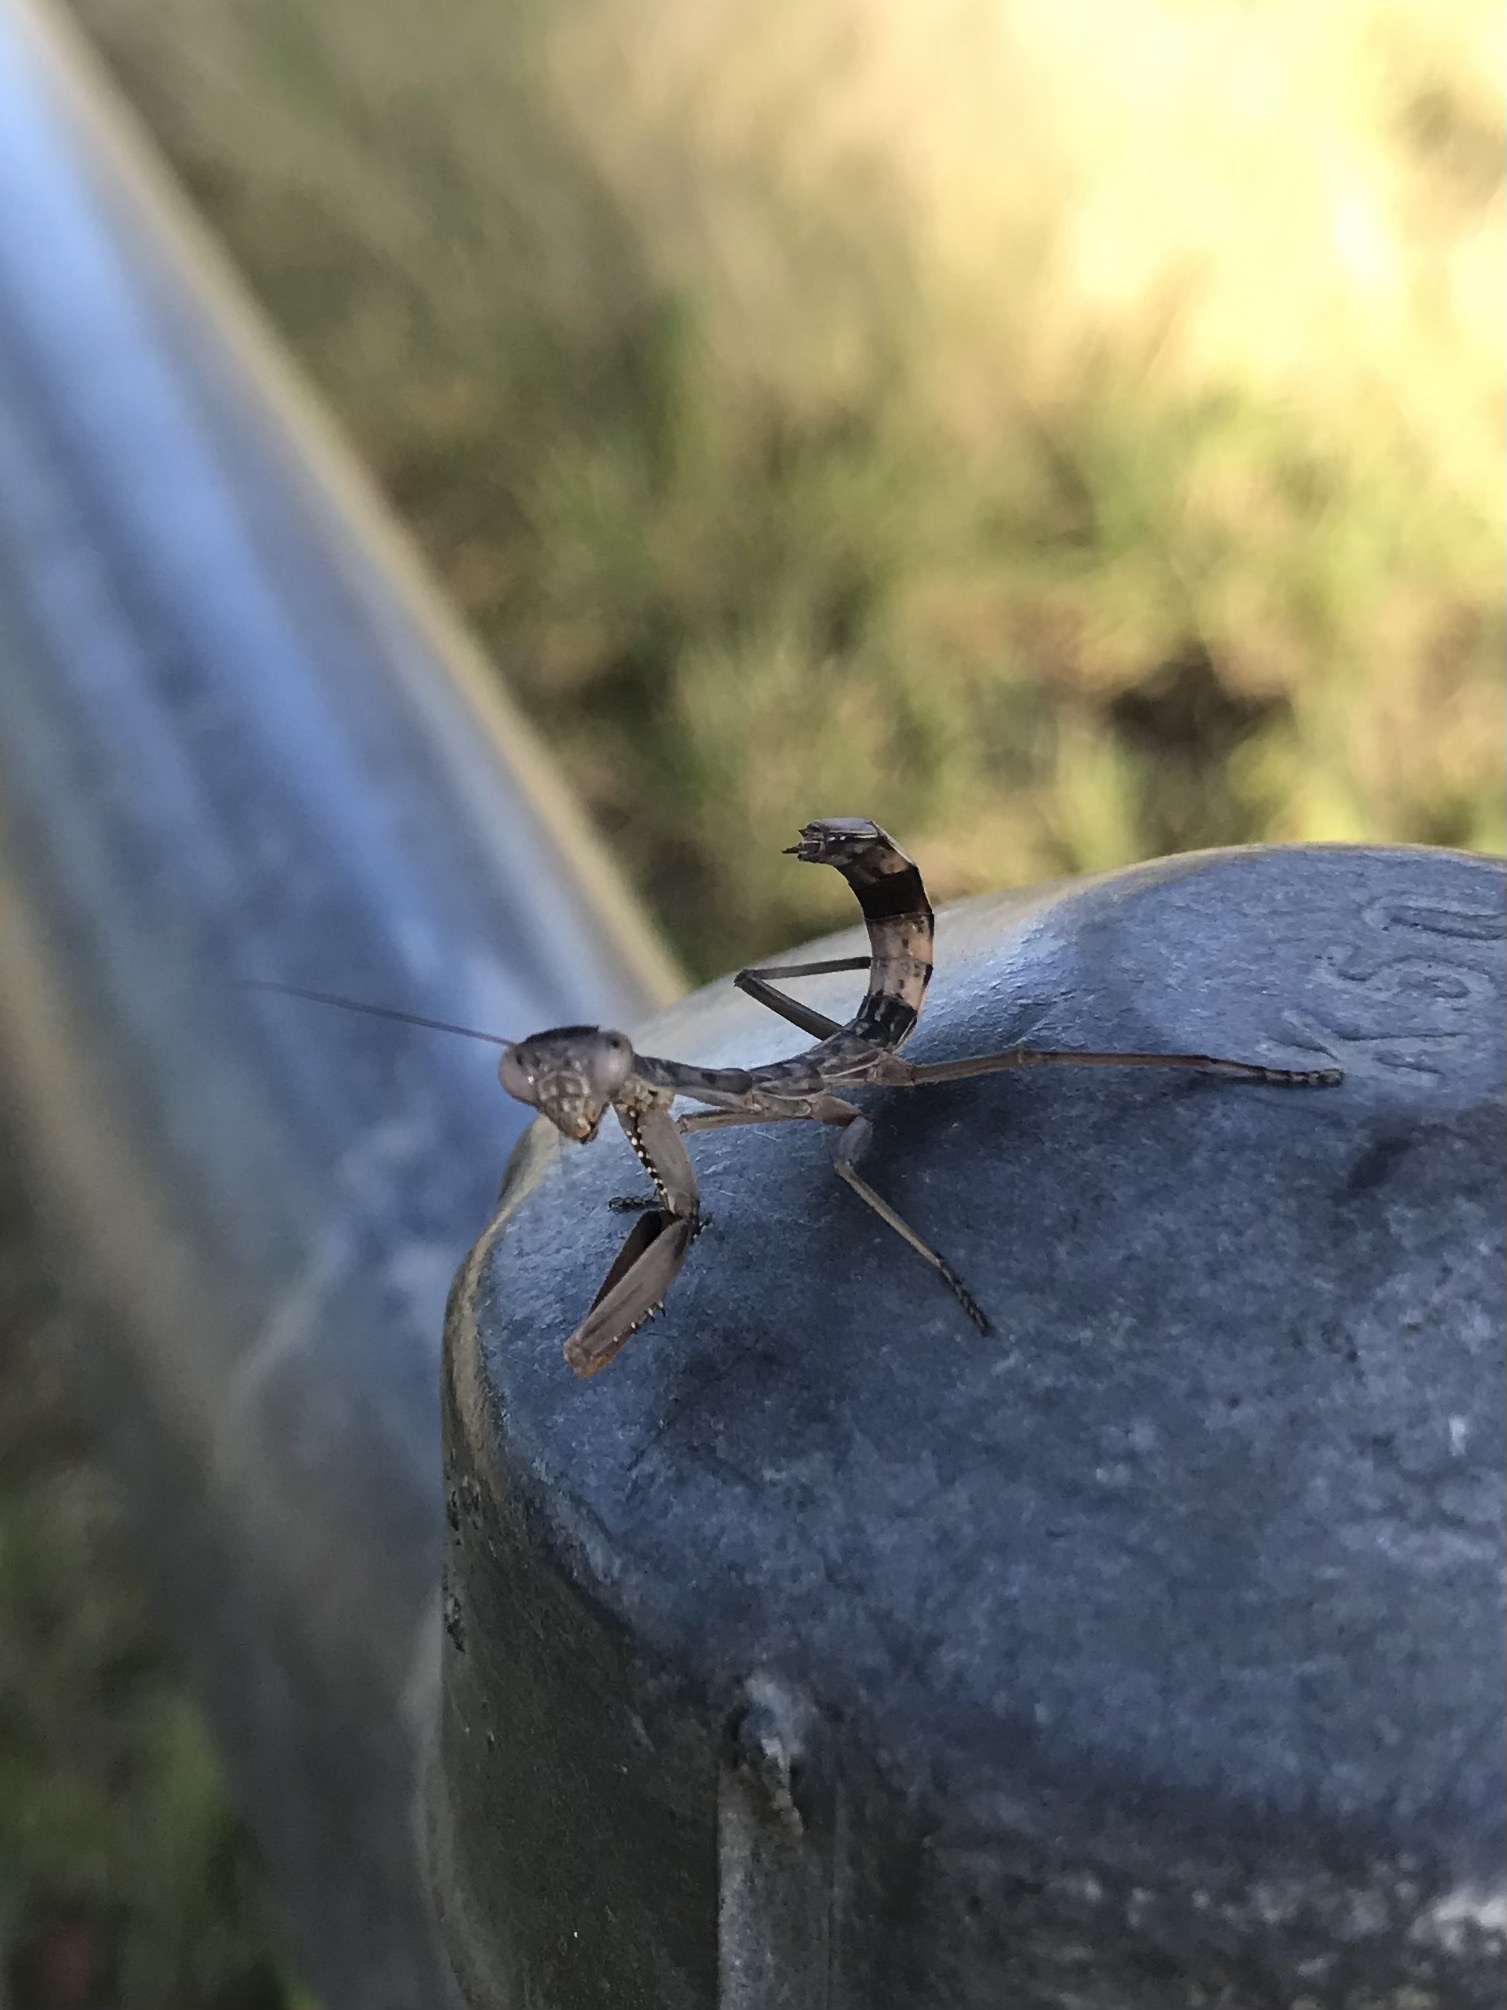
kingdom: Animalia
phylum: Arthropoda
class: Insecta
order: Mantodea
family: Mantidae
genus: Sphodropoda
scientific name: Sphodropoda tristis
